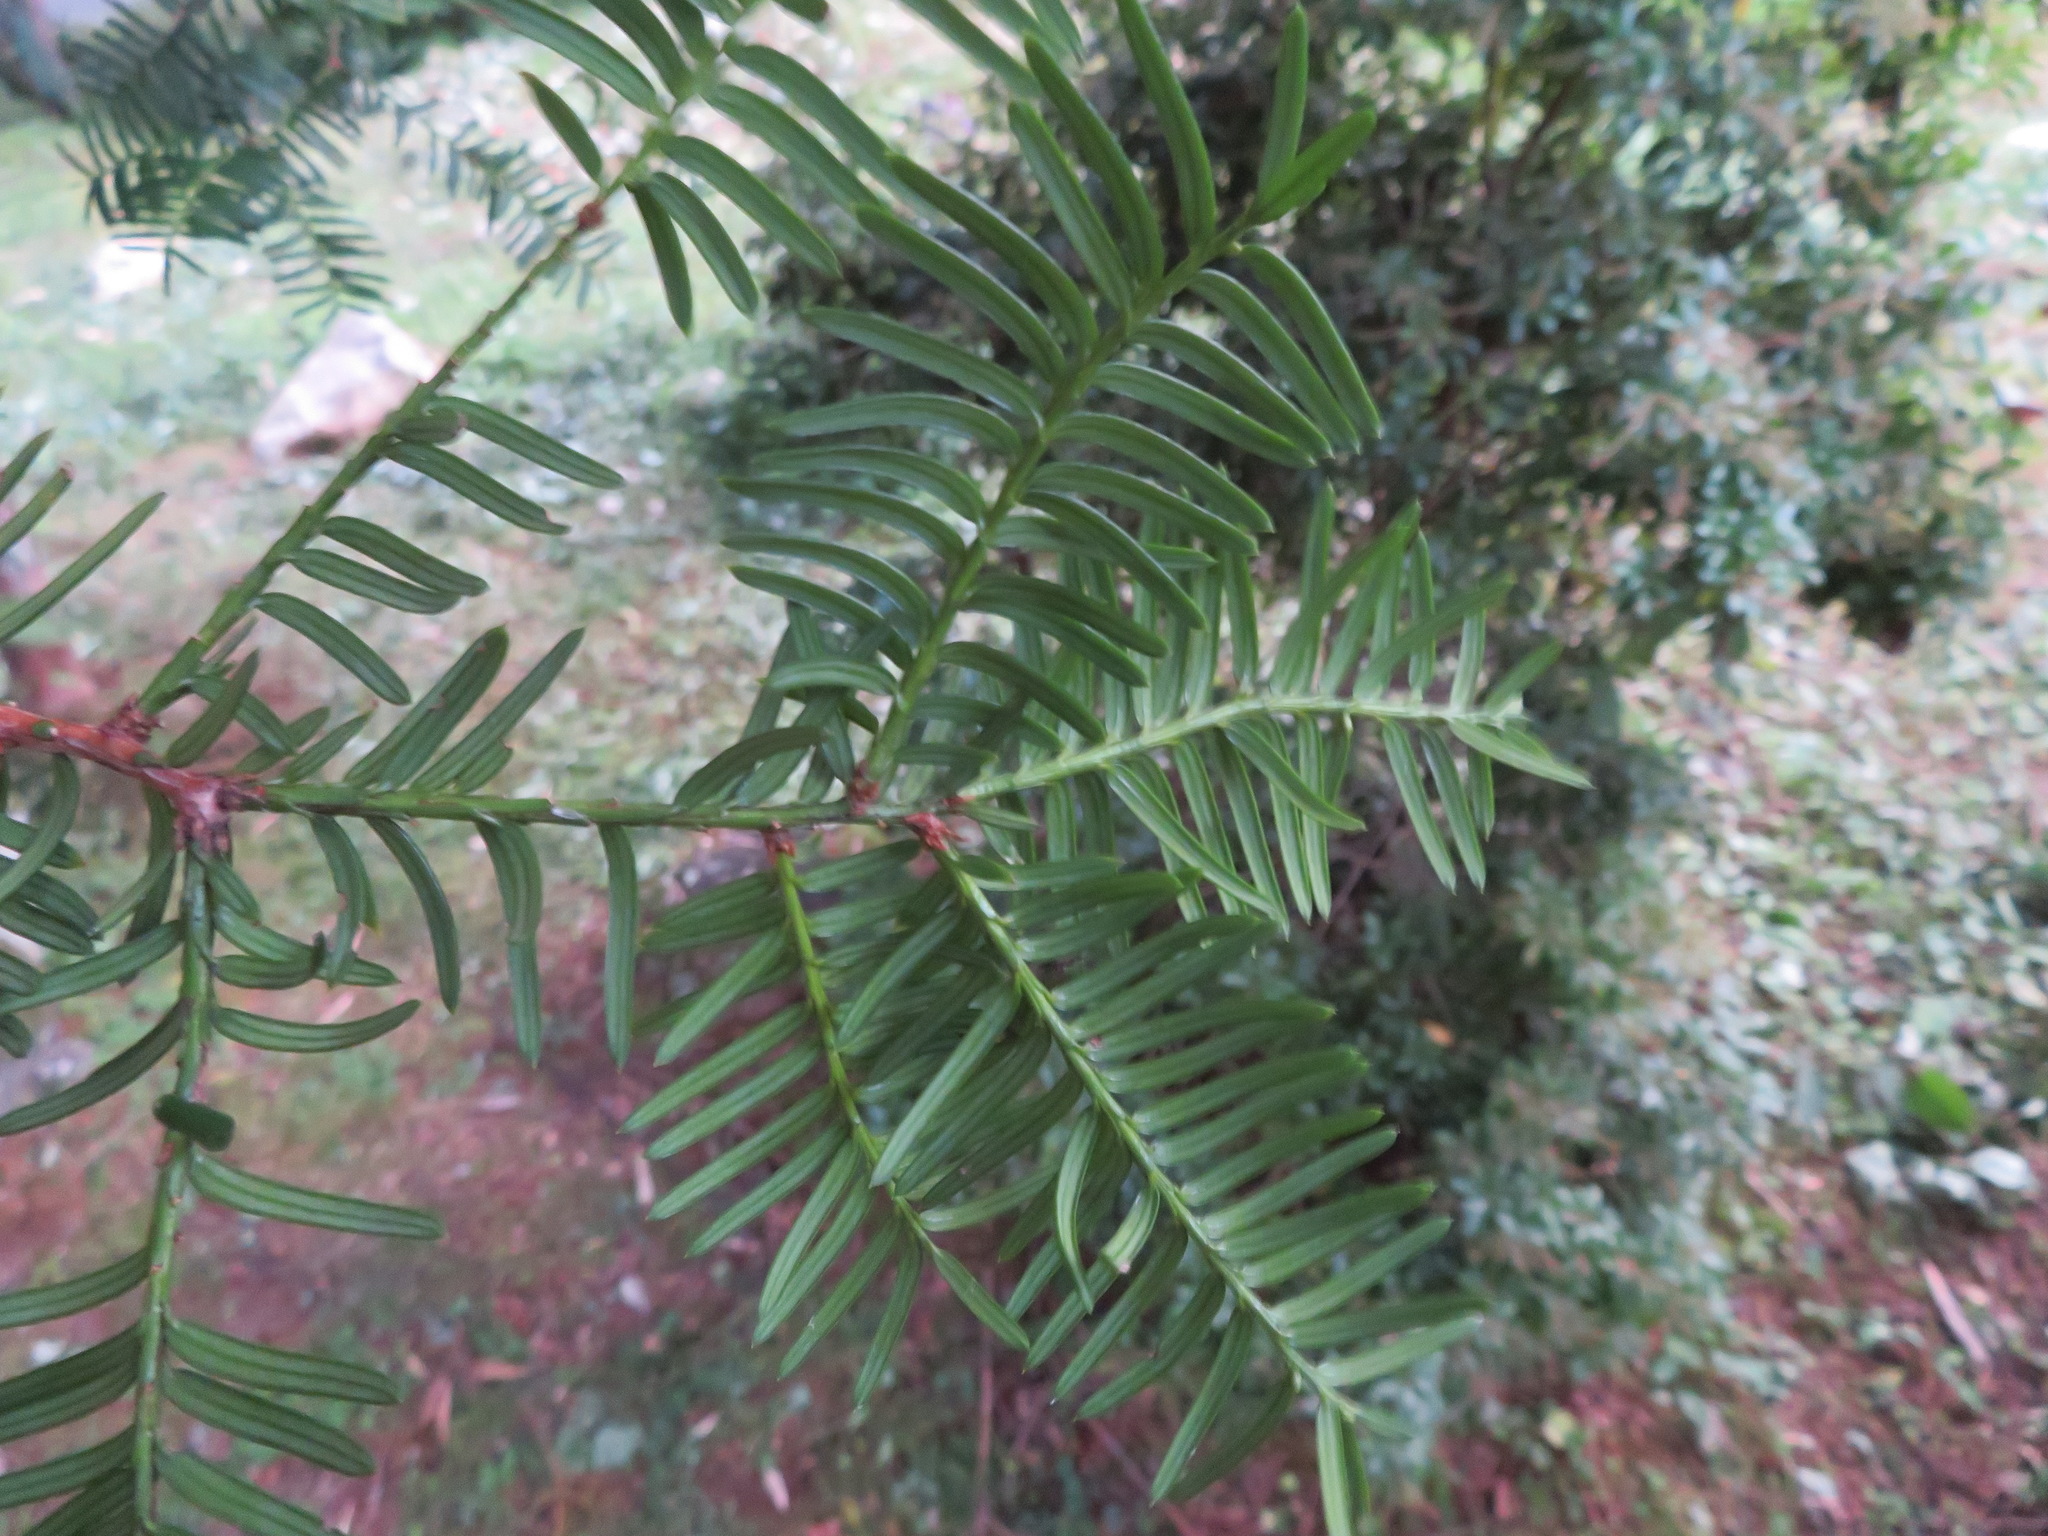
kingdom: Plantae
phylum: Tracheophyta
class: Pinopsida
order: Pinales
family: Taxaceae
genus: Taxus
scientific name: Taxus cuspidata
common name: Japanese yew
